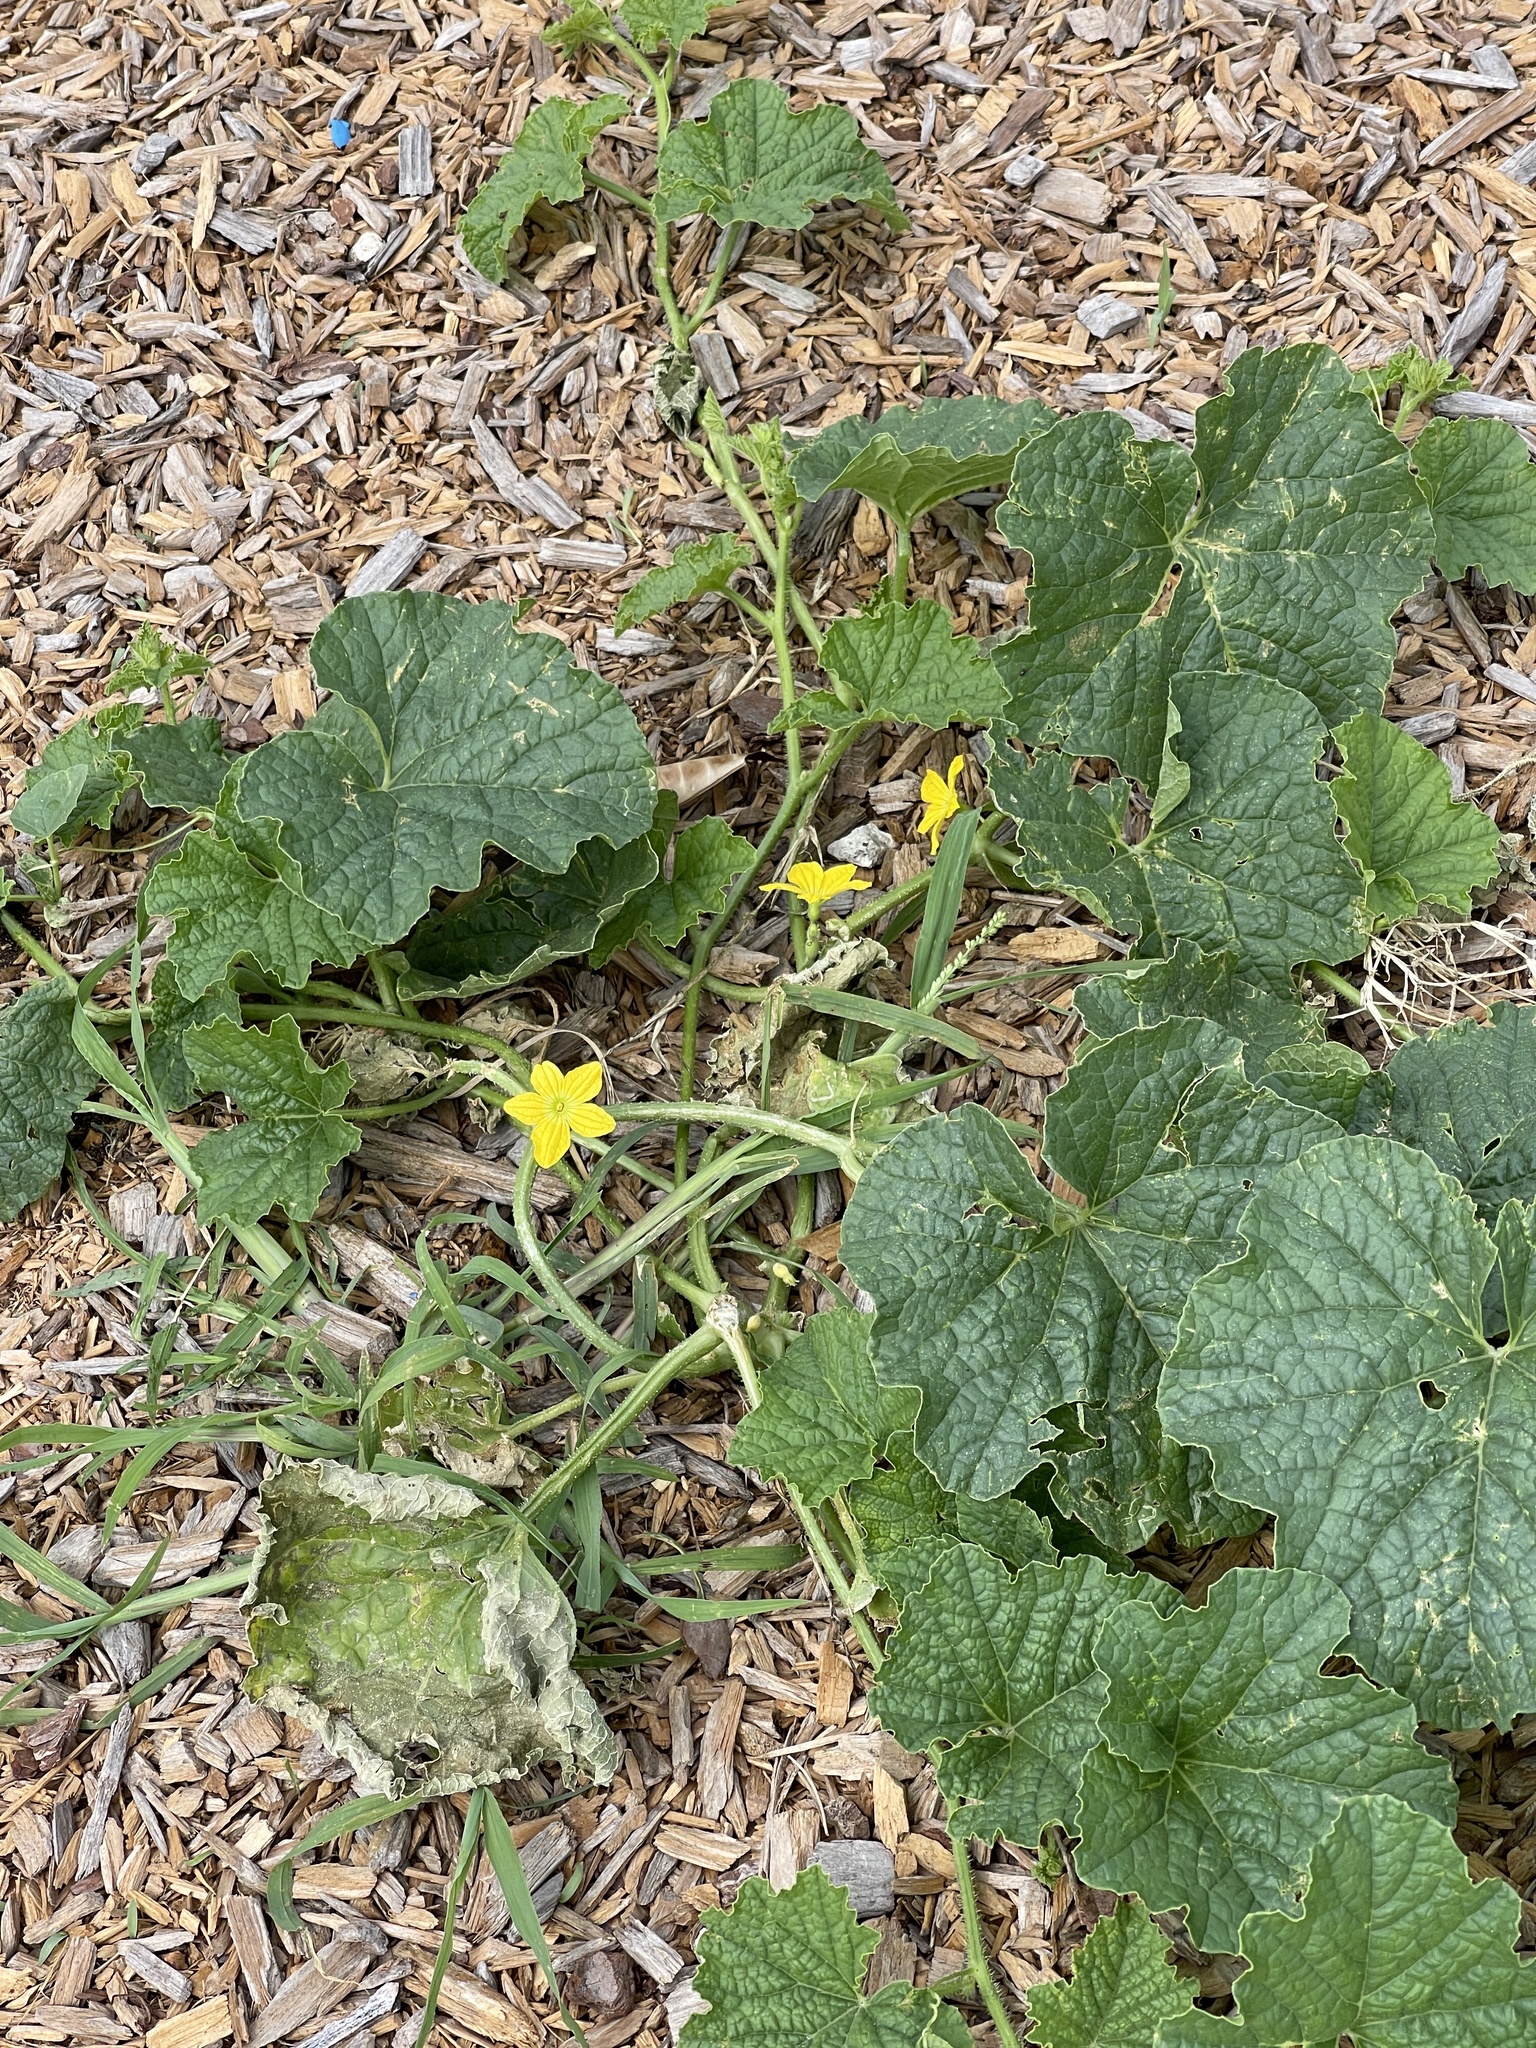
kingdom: Plantae
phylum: Tracheophyta
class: Magnoliopsida
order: Cucurbitales
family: Cucurbitaceae
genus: Cucumis
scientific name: Cucumis melo
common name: Melon
